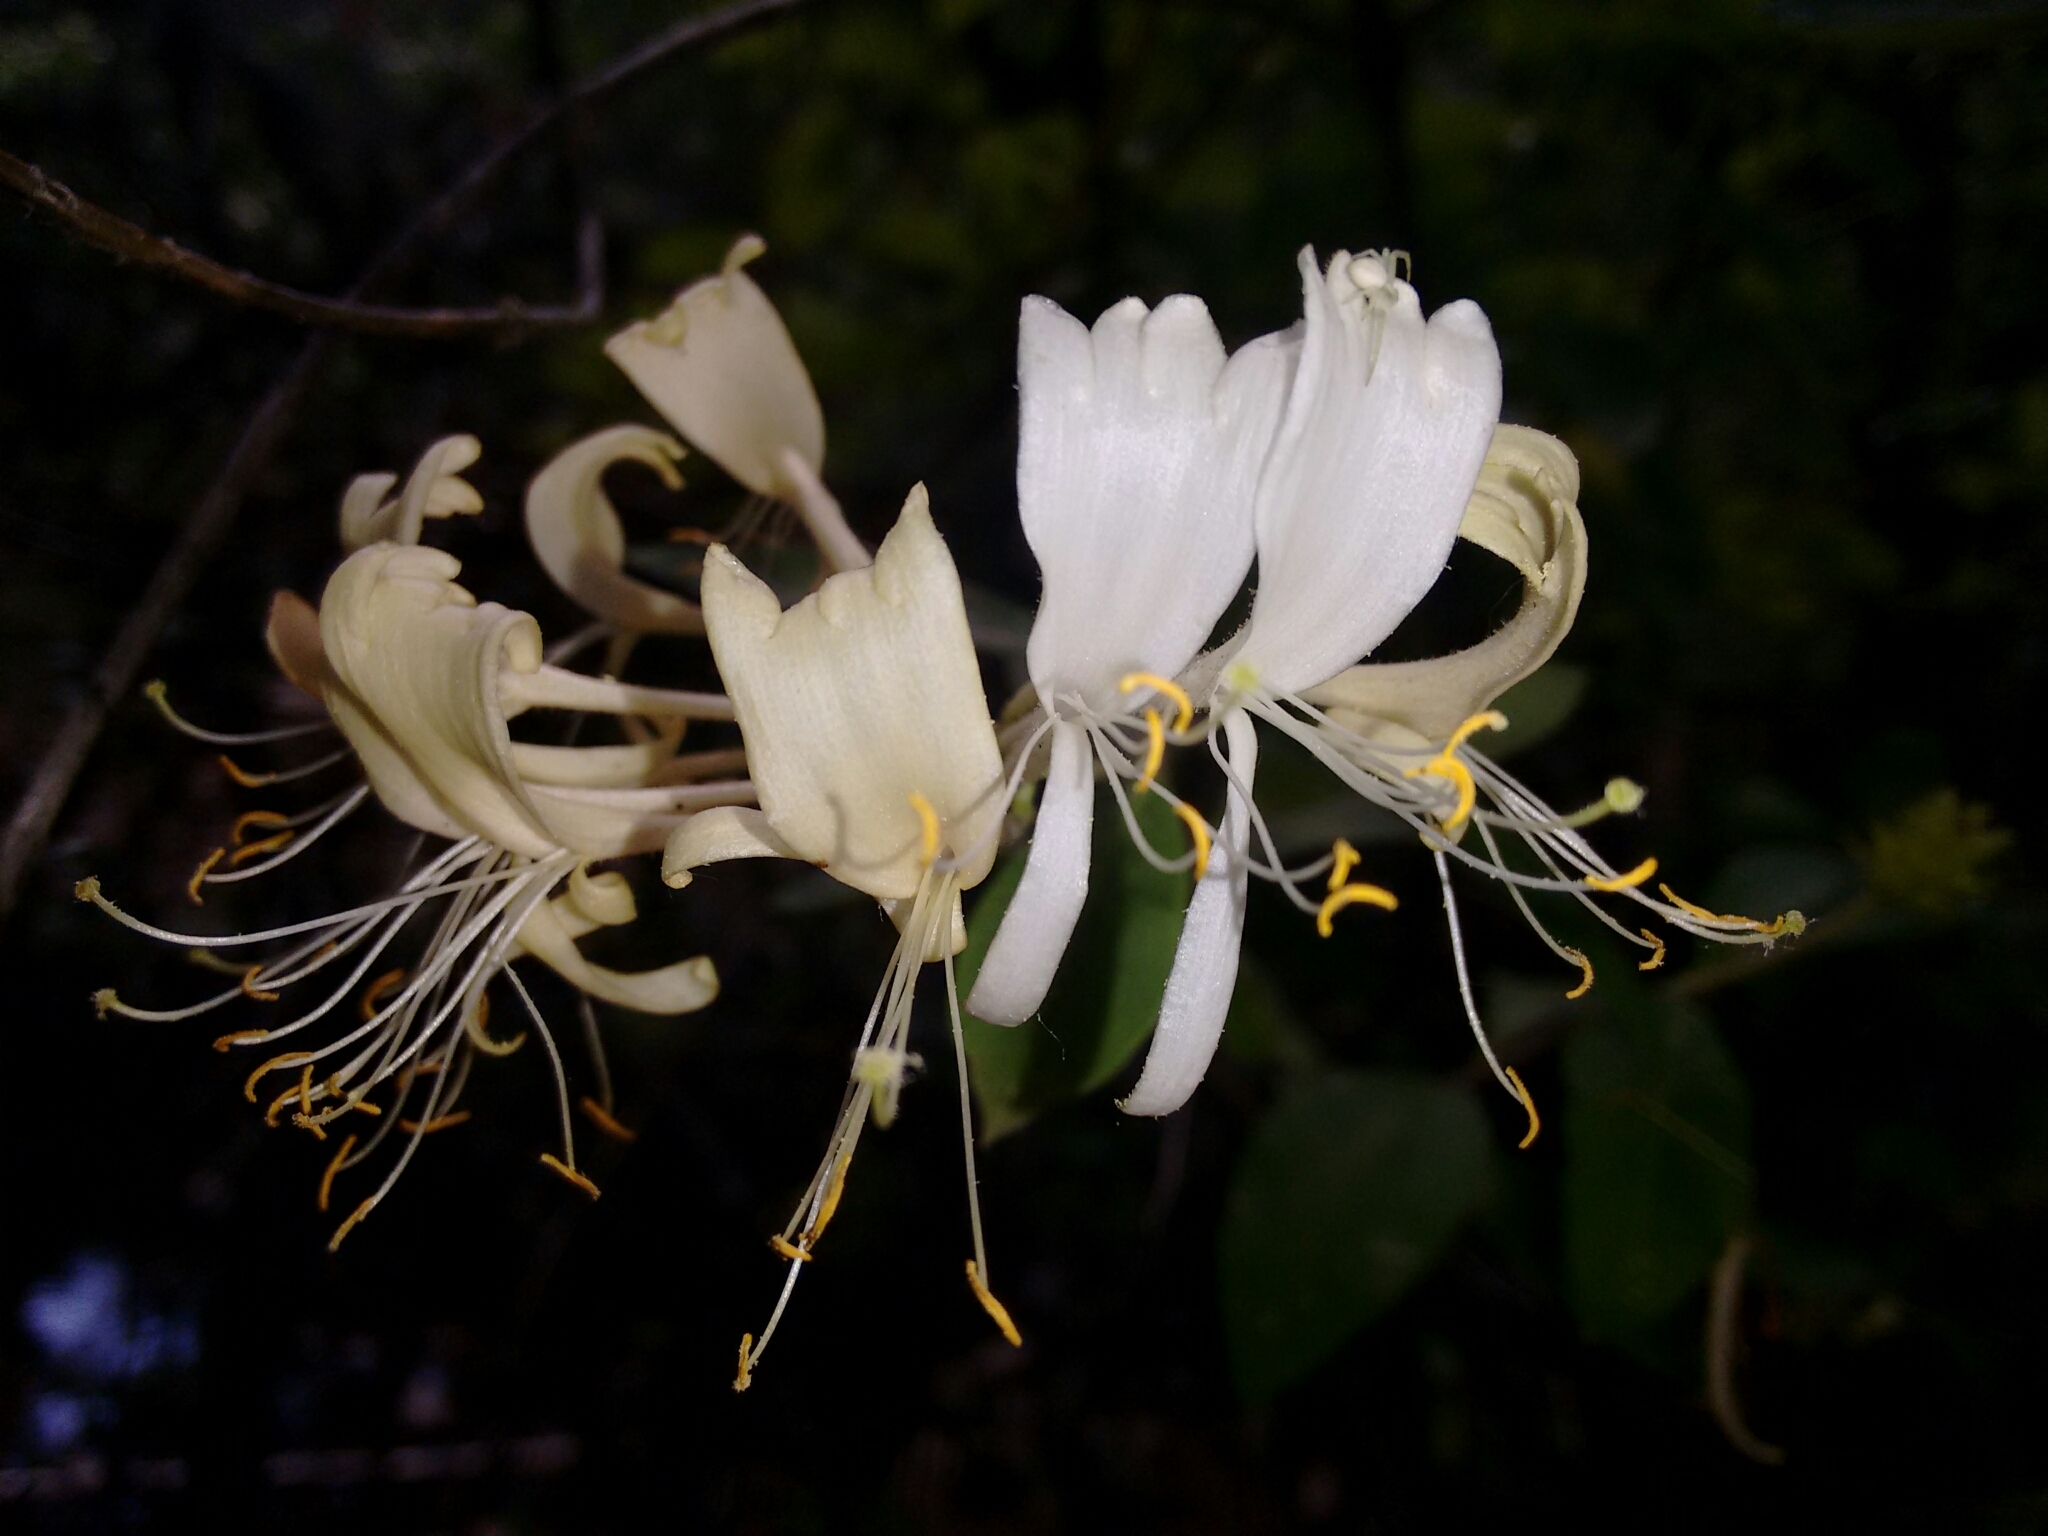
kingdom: Plantae
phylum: Tracheophyta
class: Magnoliopsida
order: Dipsacales
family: Caprifoliaceae
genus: Lonicera
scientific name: Lonicera periclymenum
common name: European honeysuckle
